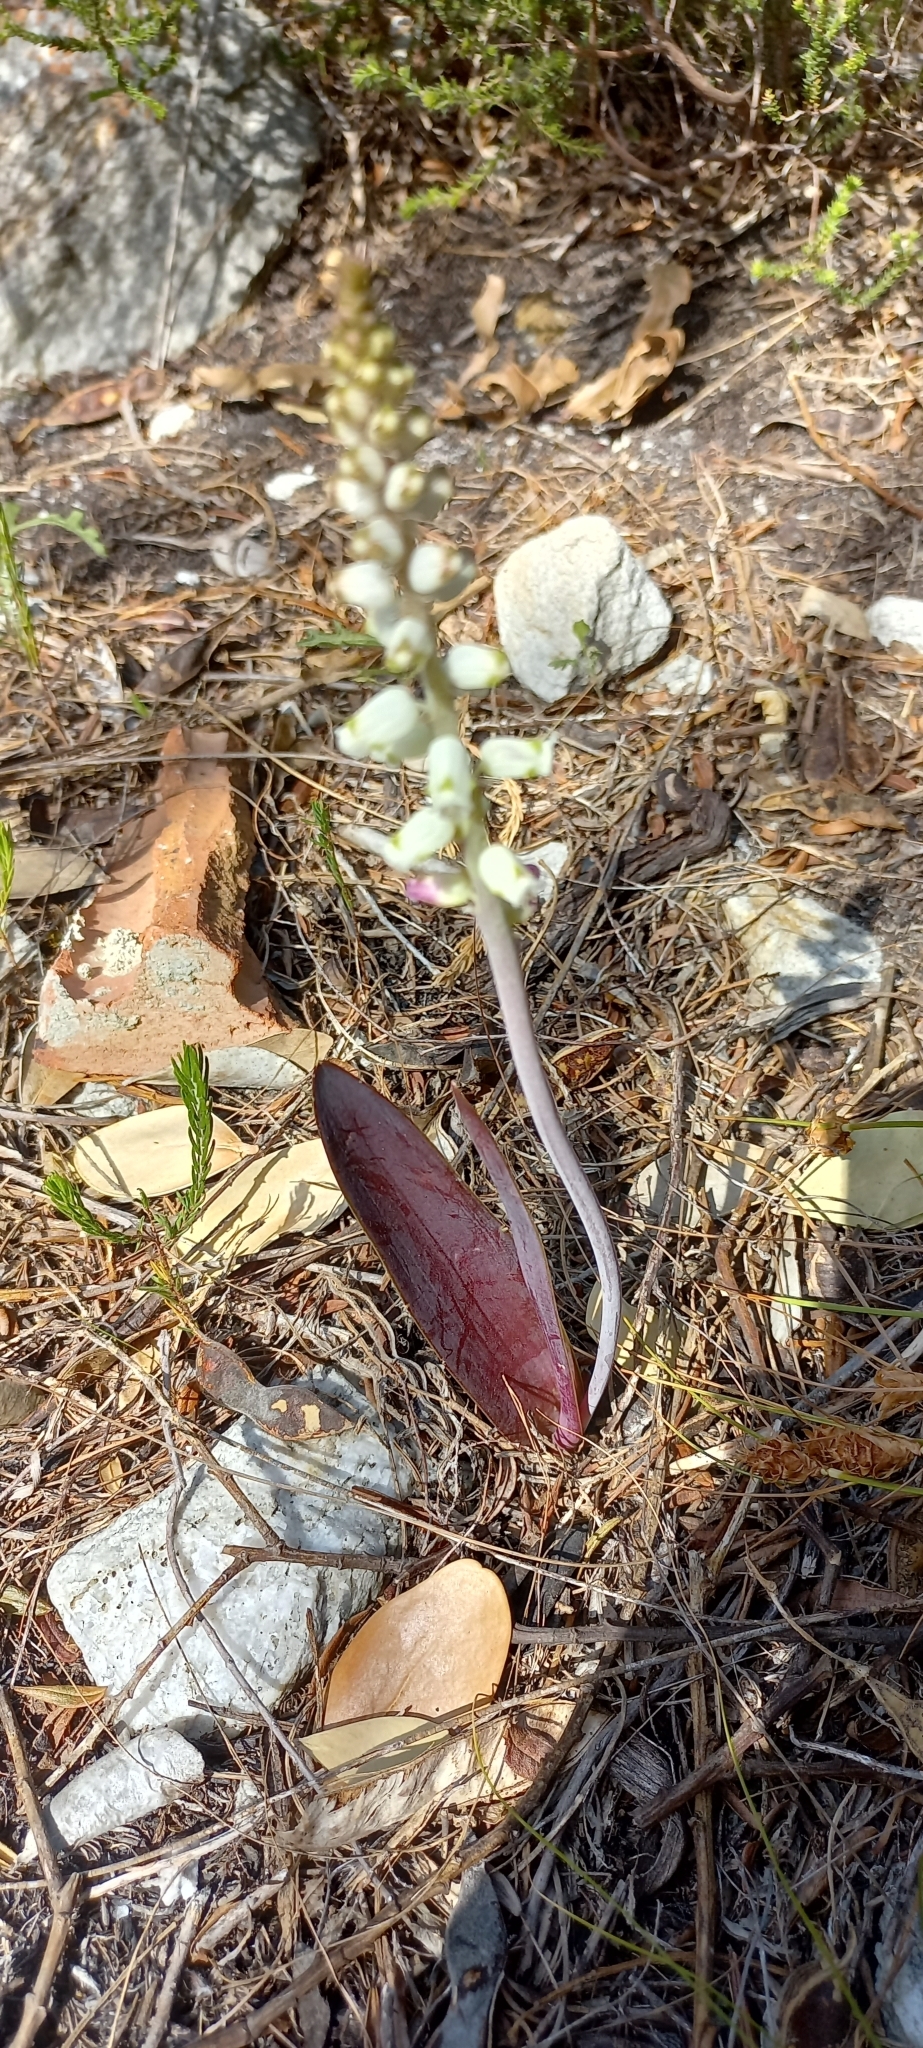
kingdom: Plantae
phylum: Tracheophyta
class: Liliopsida
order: Asparagales
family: Asparagaceae
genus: Lachenalia
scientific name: Lachenalia peersii
